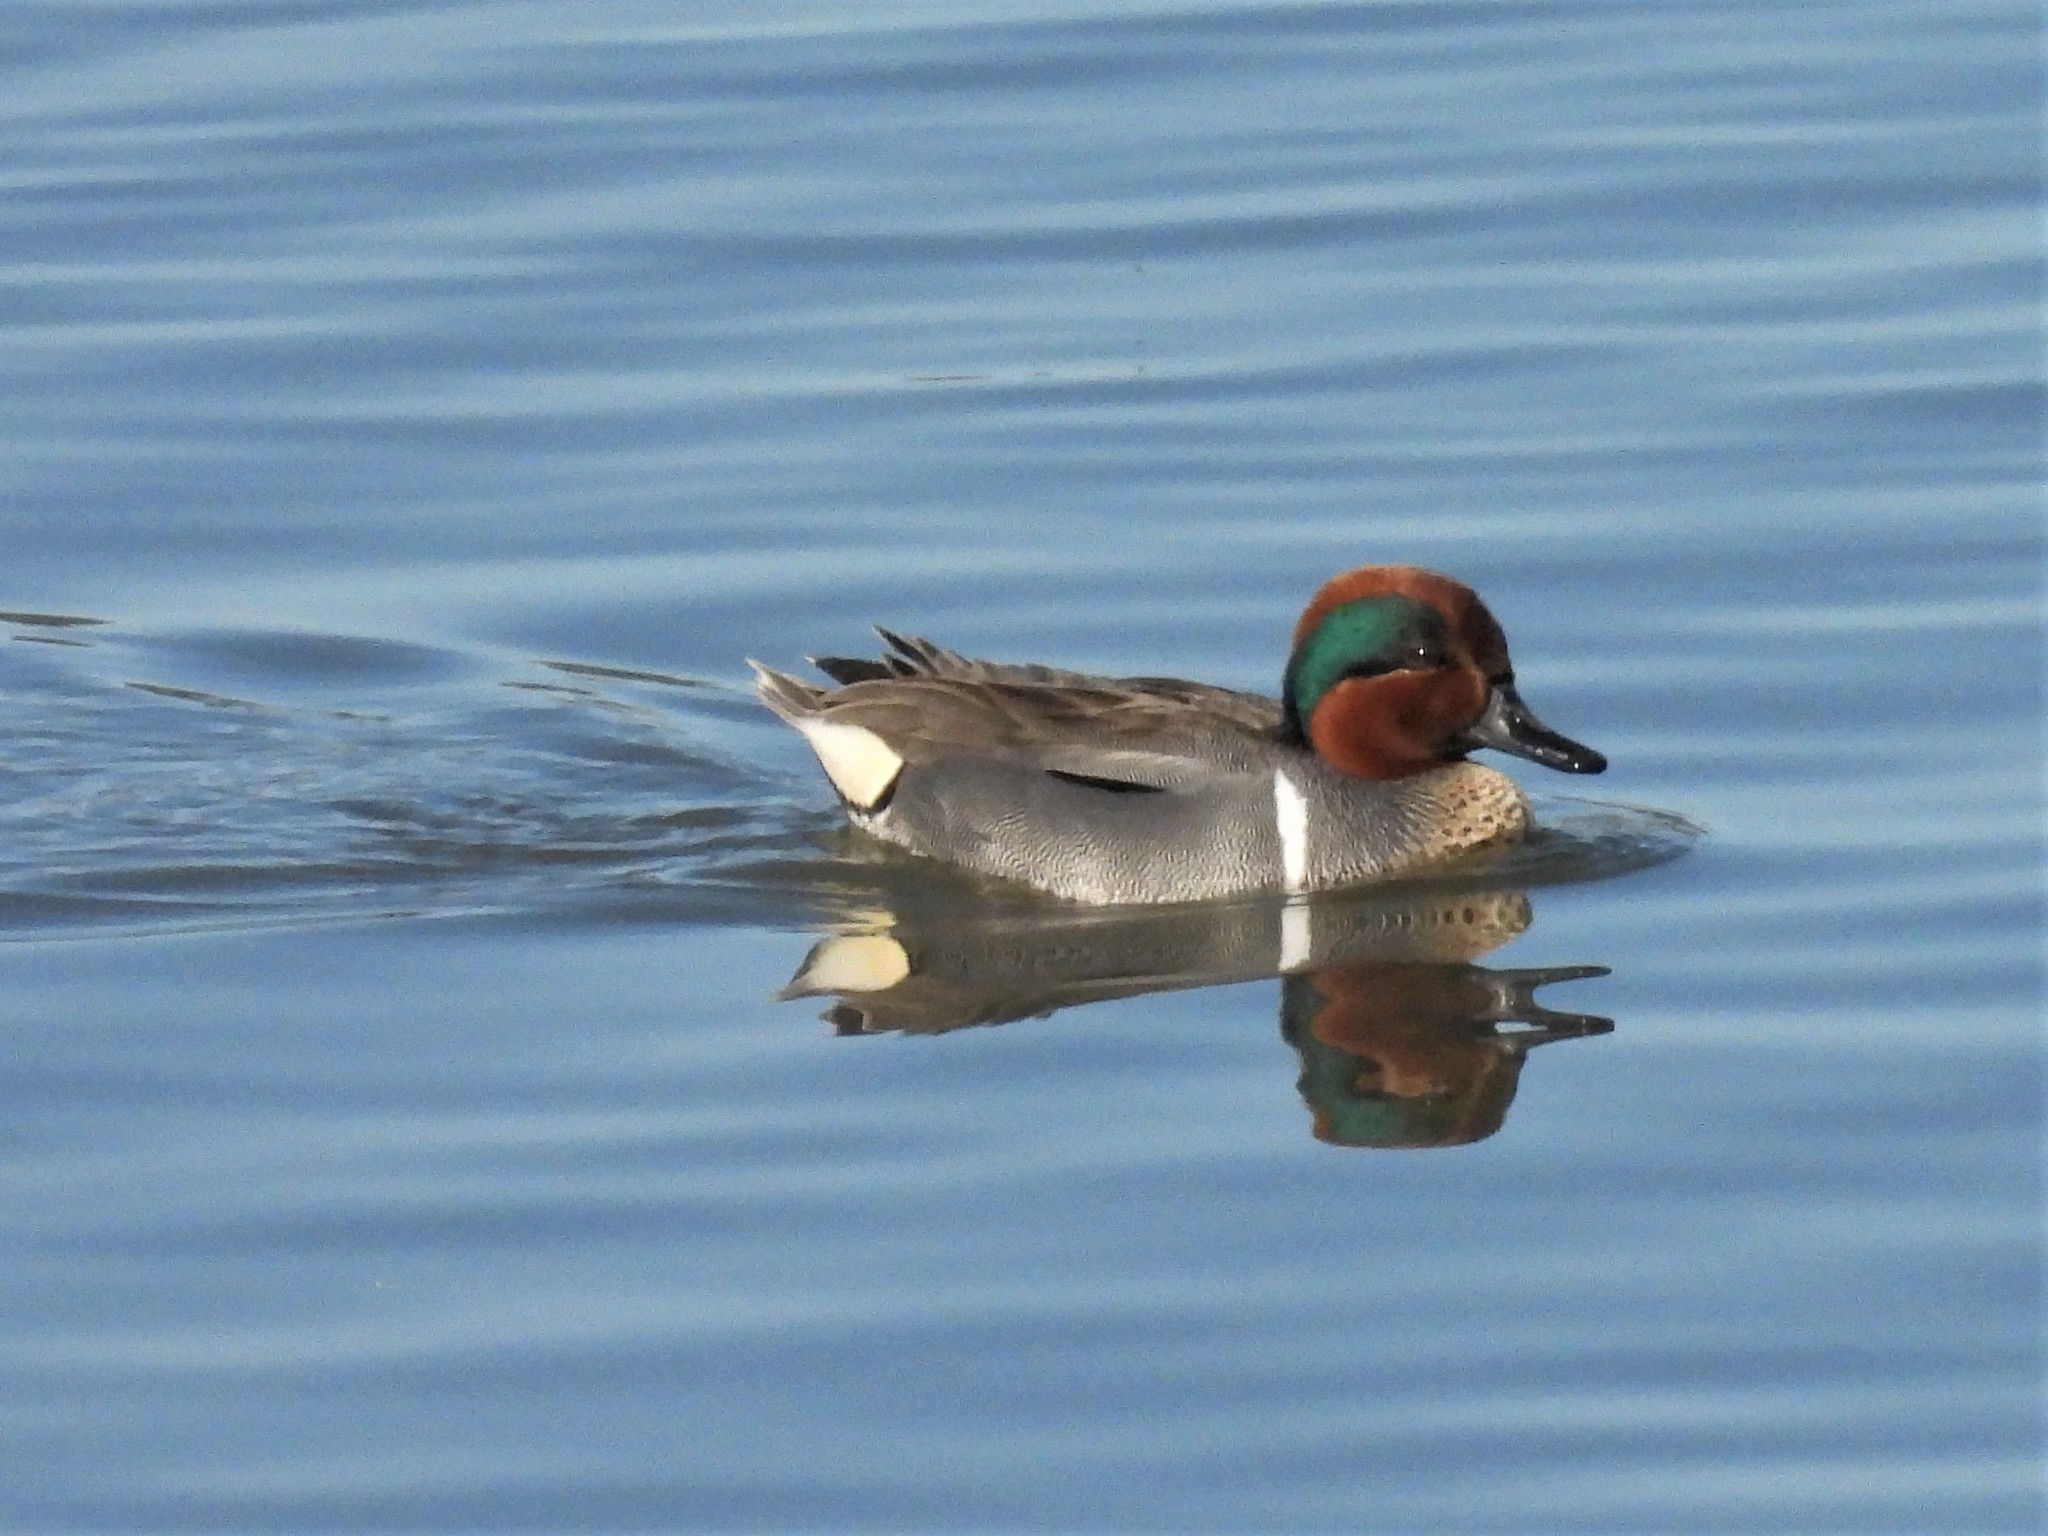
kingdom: Animalia
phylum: Chordata
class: Aves
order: Anseriformes
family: Anatidae
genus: Anas
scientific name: Anas crecca
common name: Eurasian teal
